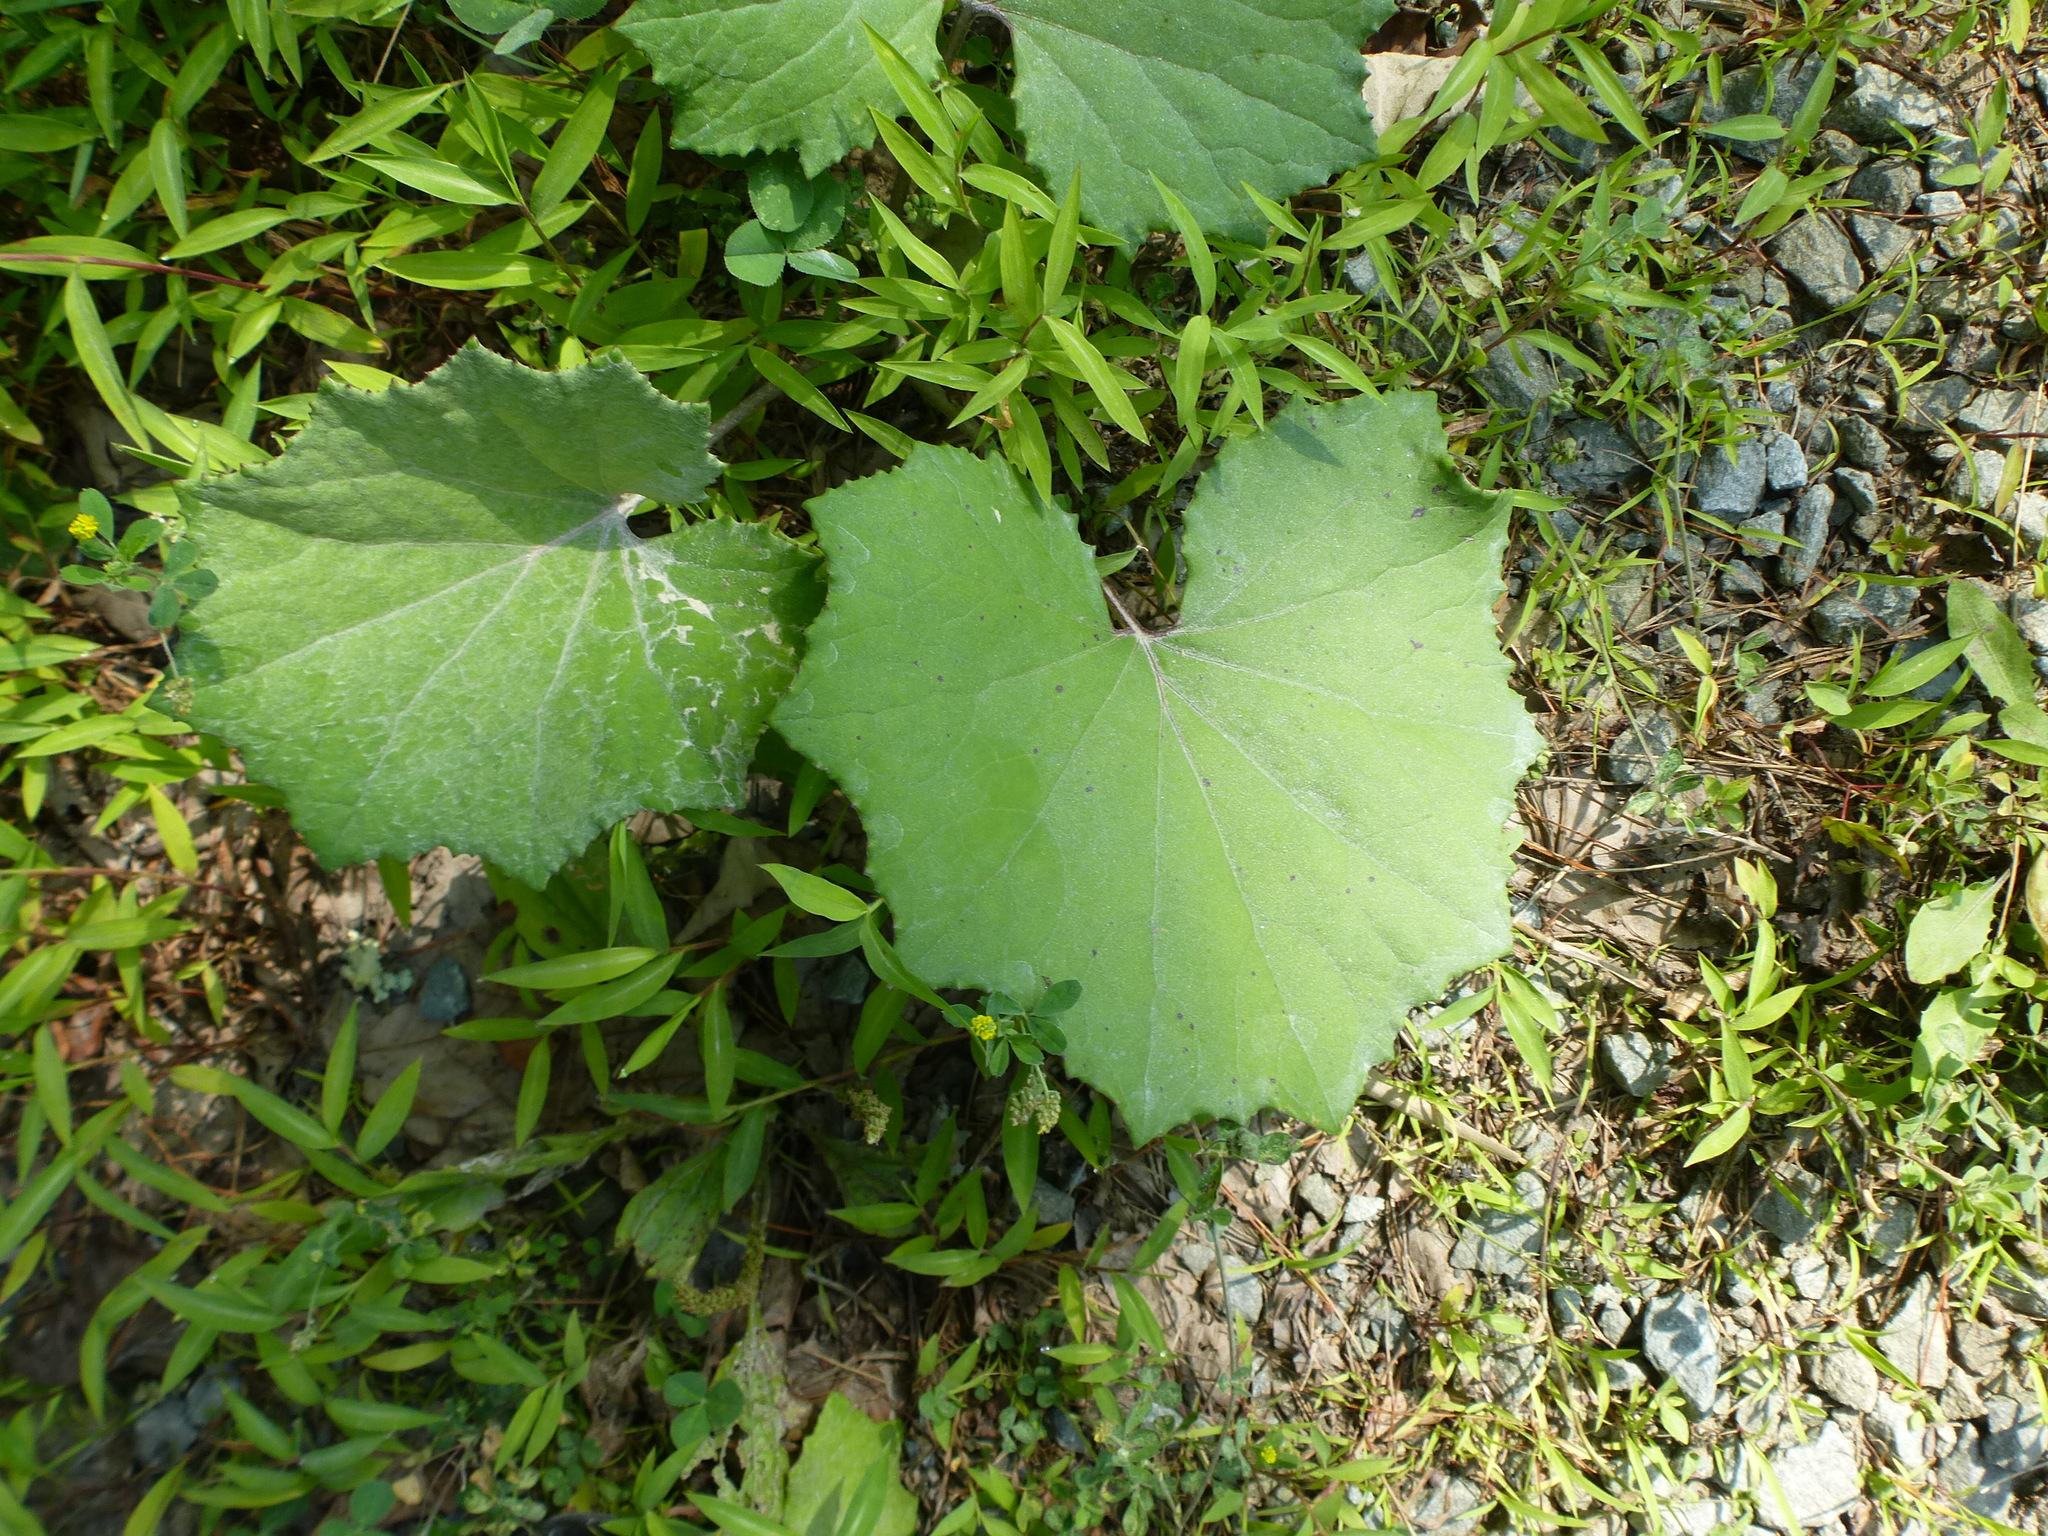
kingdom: Plantae
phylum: Tracheophyta
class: Magnoliopsida
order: Asterales
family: Asteraceae
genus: Tussilago
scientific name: Tussilago farfara
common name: Coltsfoot
